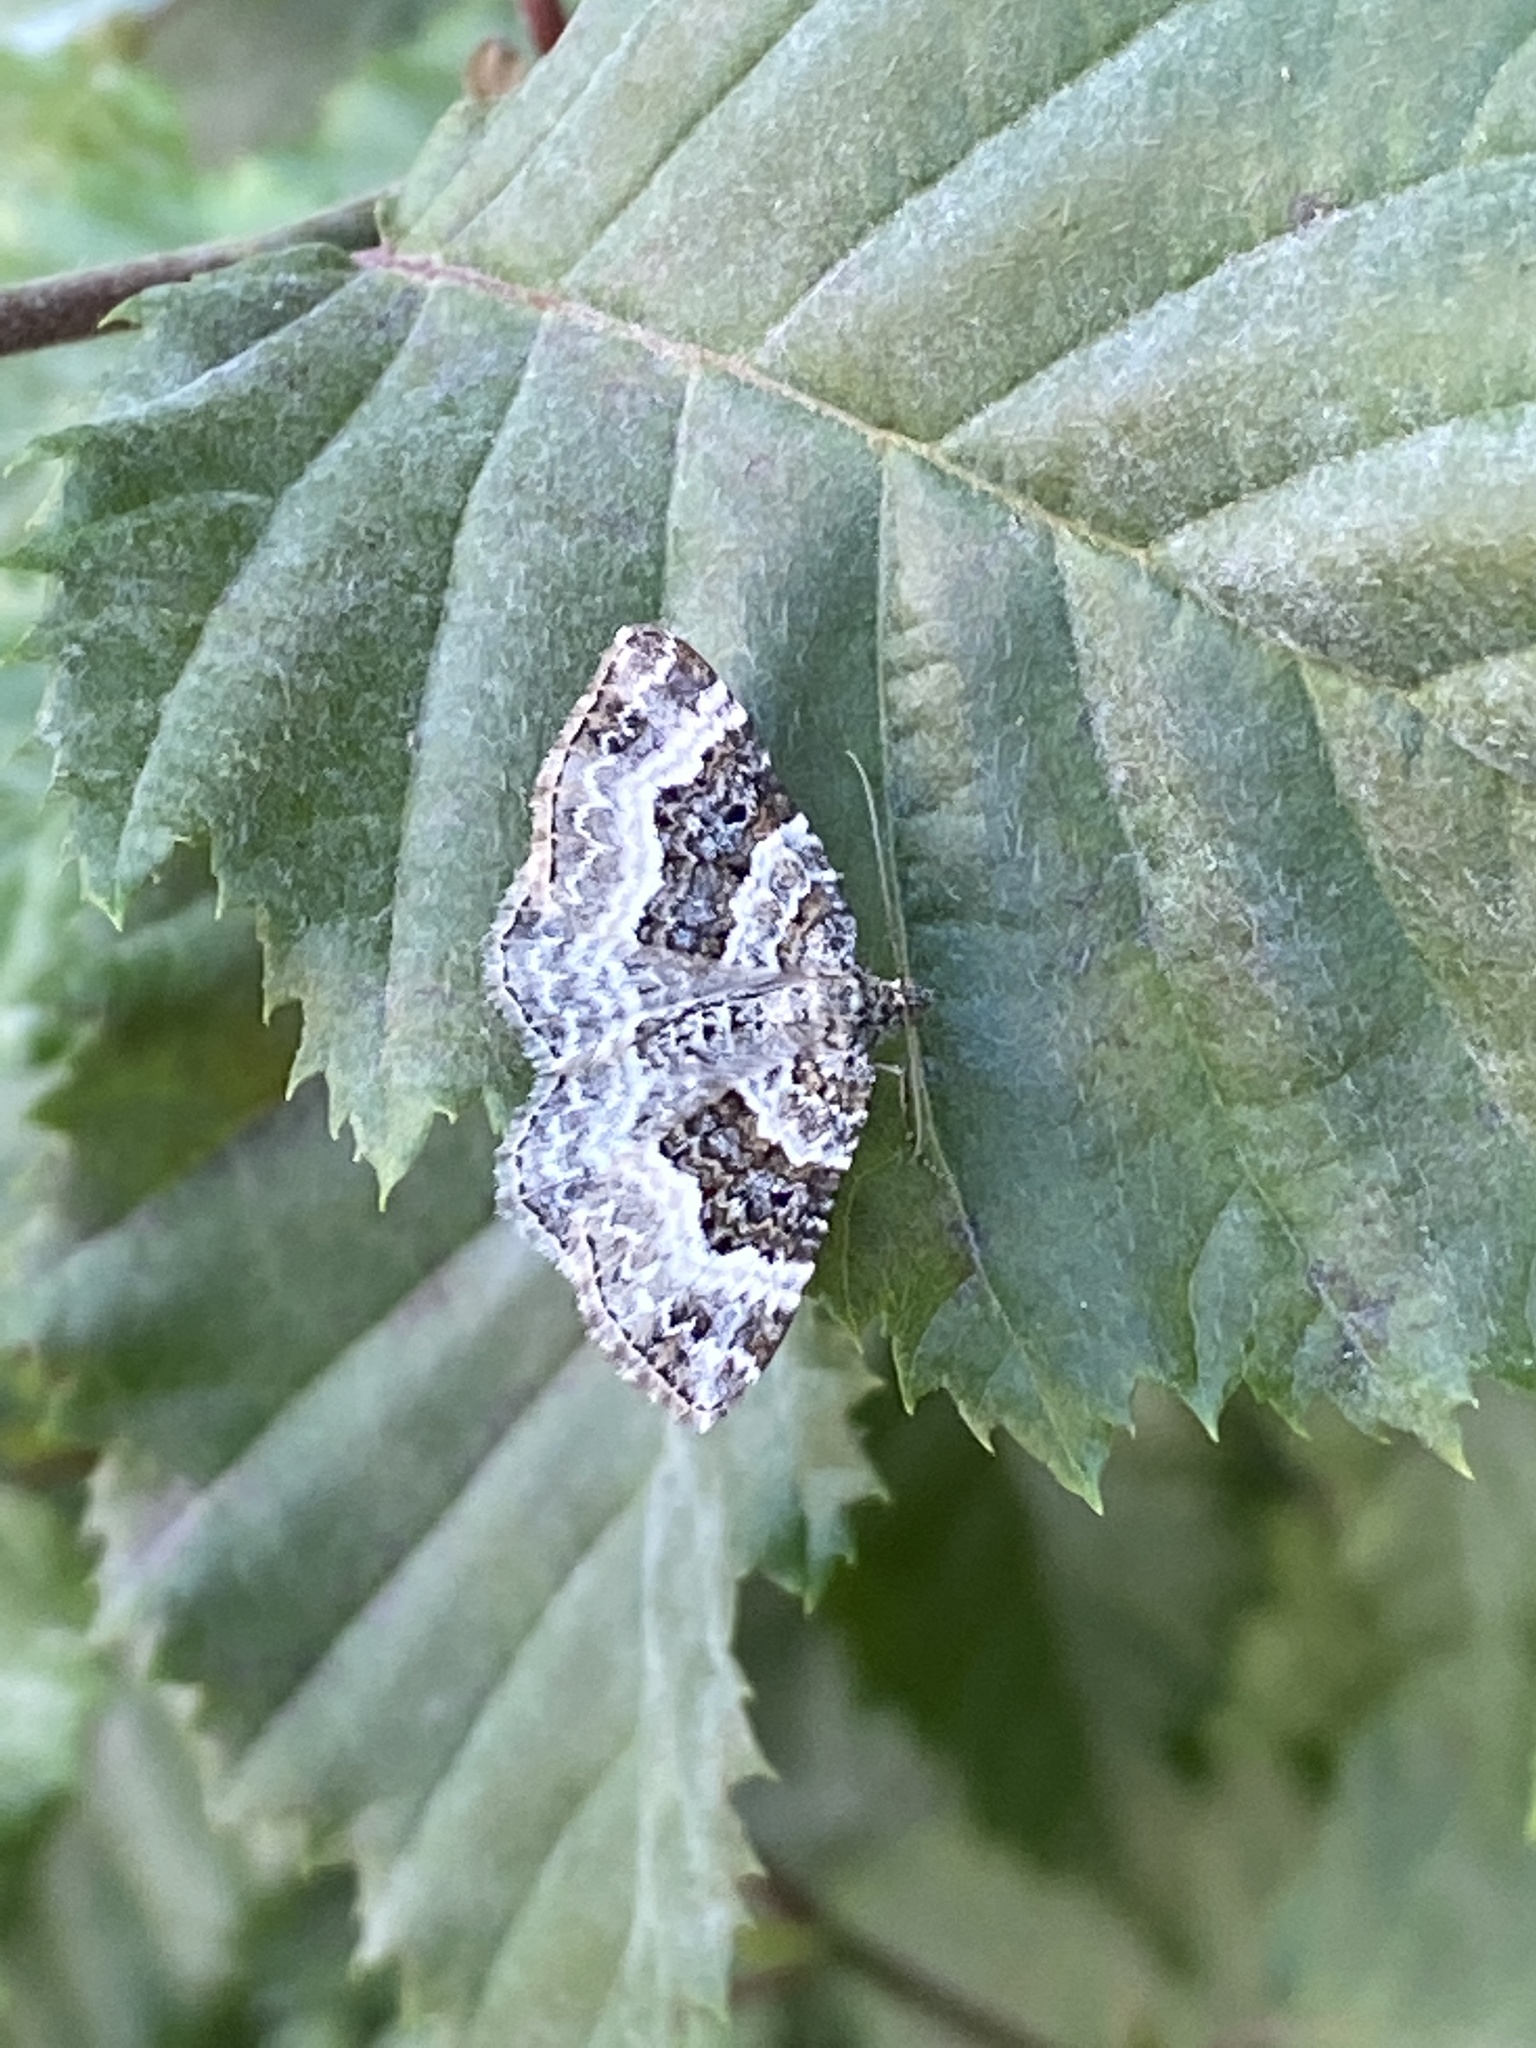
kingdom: Animalia
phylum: Arthropoda
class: Insecta
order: Lepidoptera
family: Geometridae
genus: Epirrhoe
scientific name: Epirrhoe alternata
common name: Common carpet
